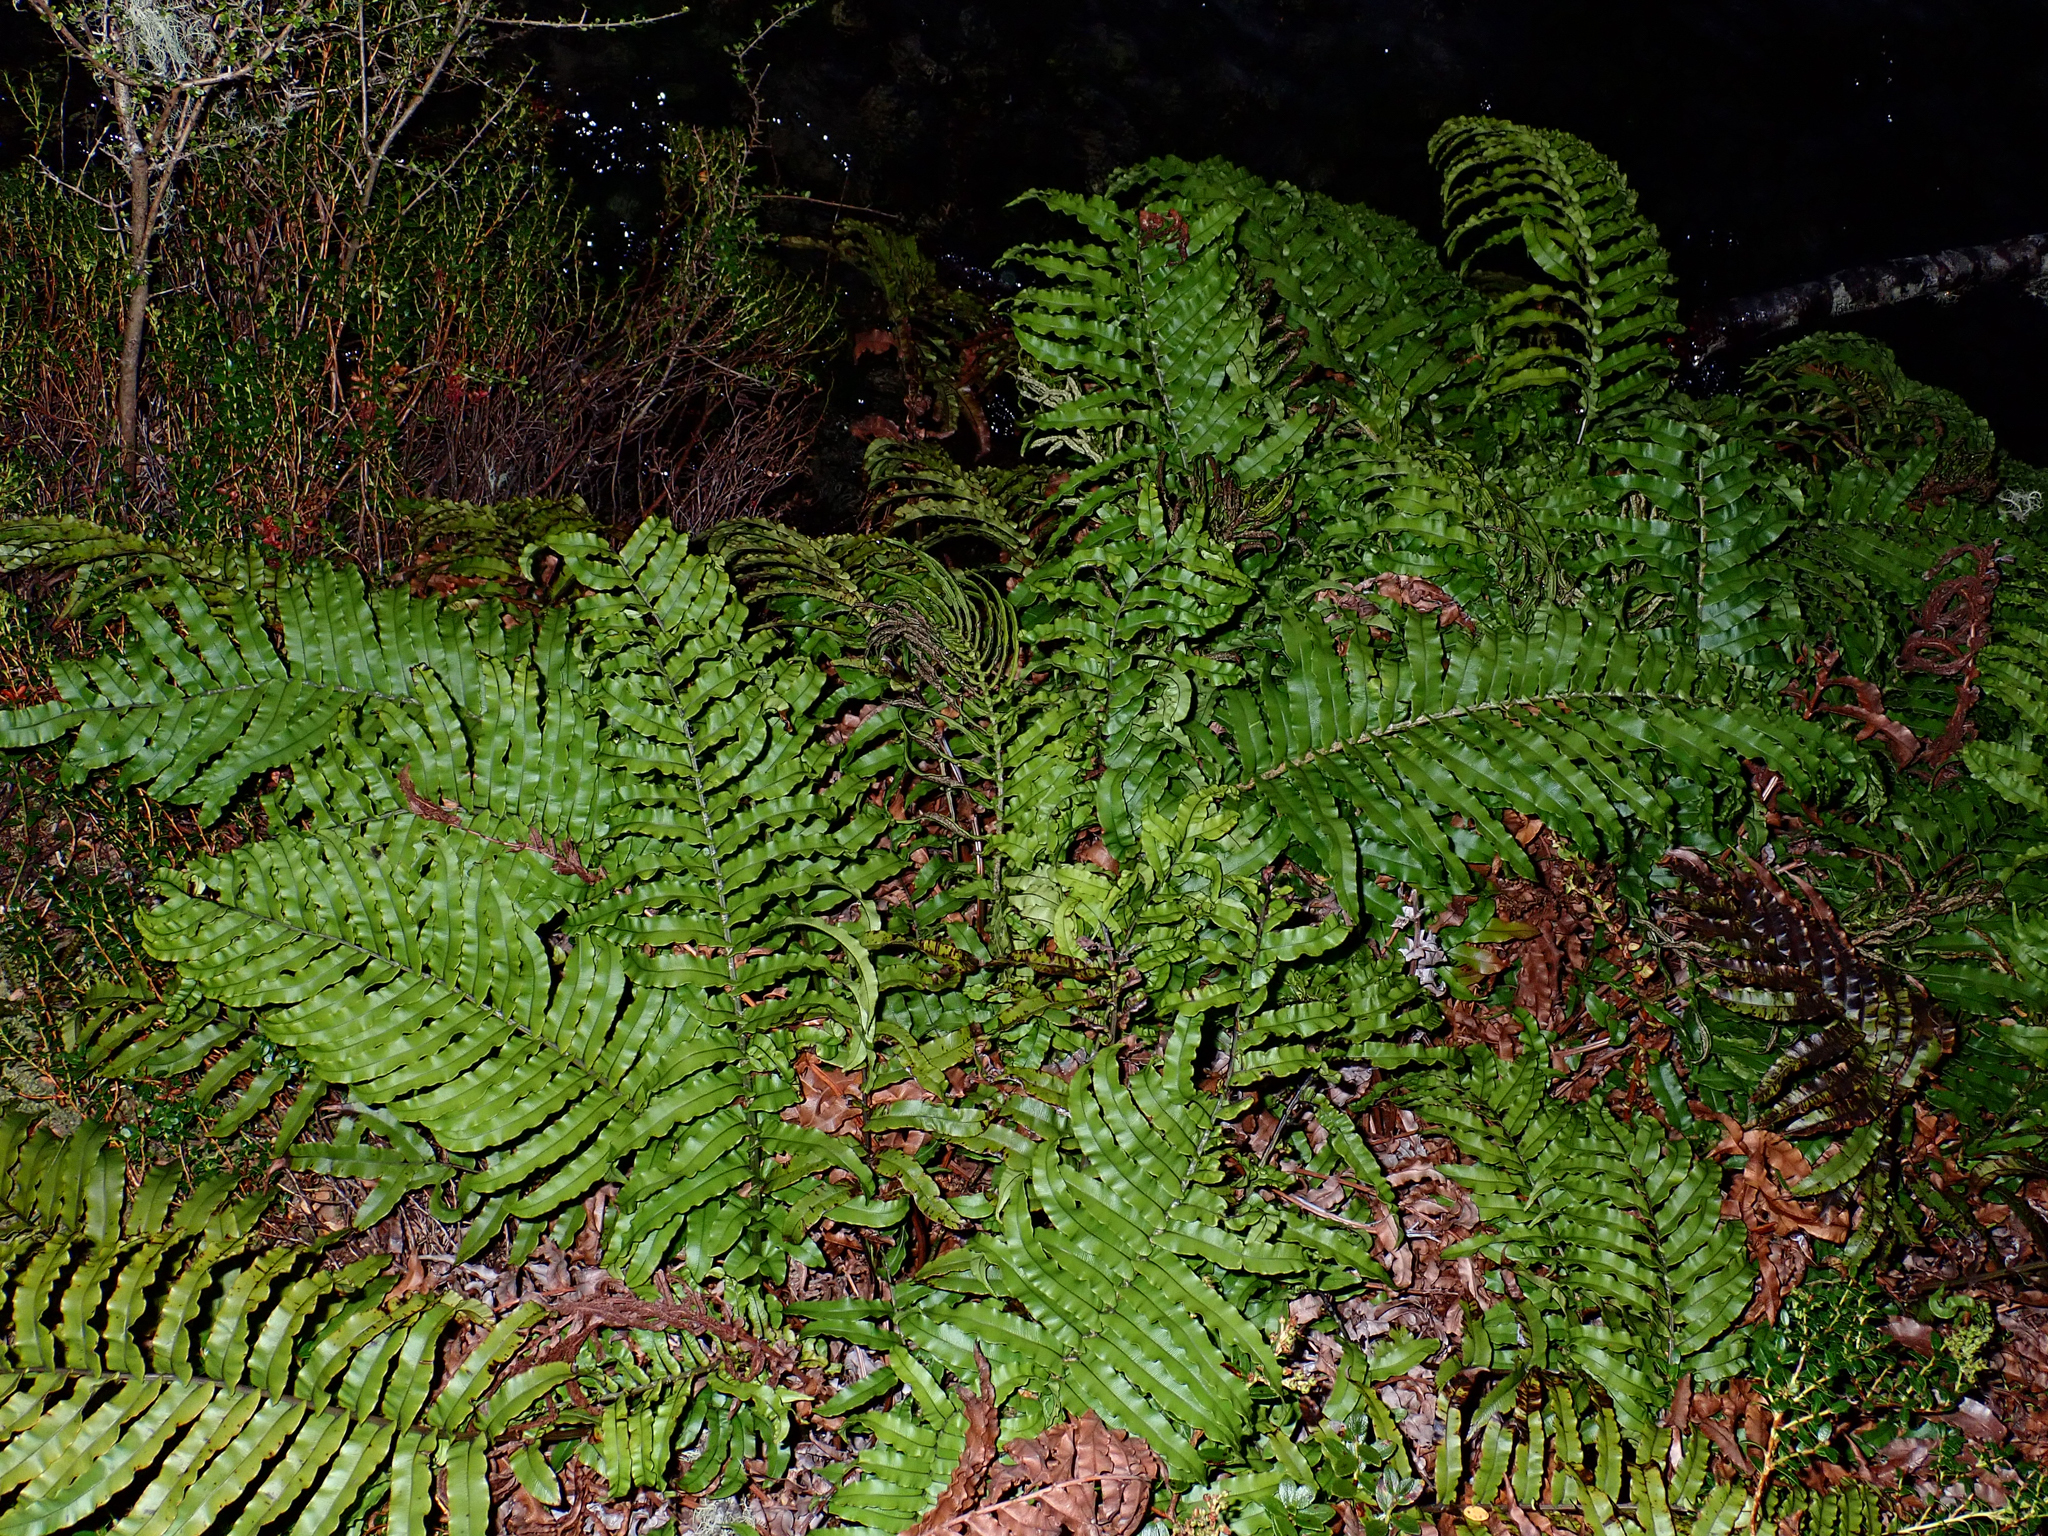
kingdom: Plantae
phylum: Tracheophyta
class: Polypodiopsida
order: Polypodiales
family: Blechnaceae
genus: Parablechnum
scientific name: Parablechnum montanum
